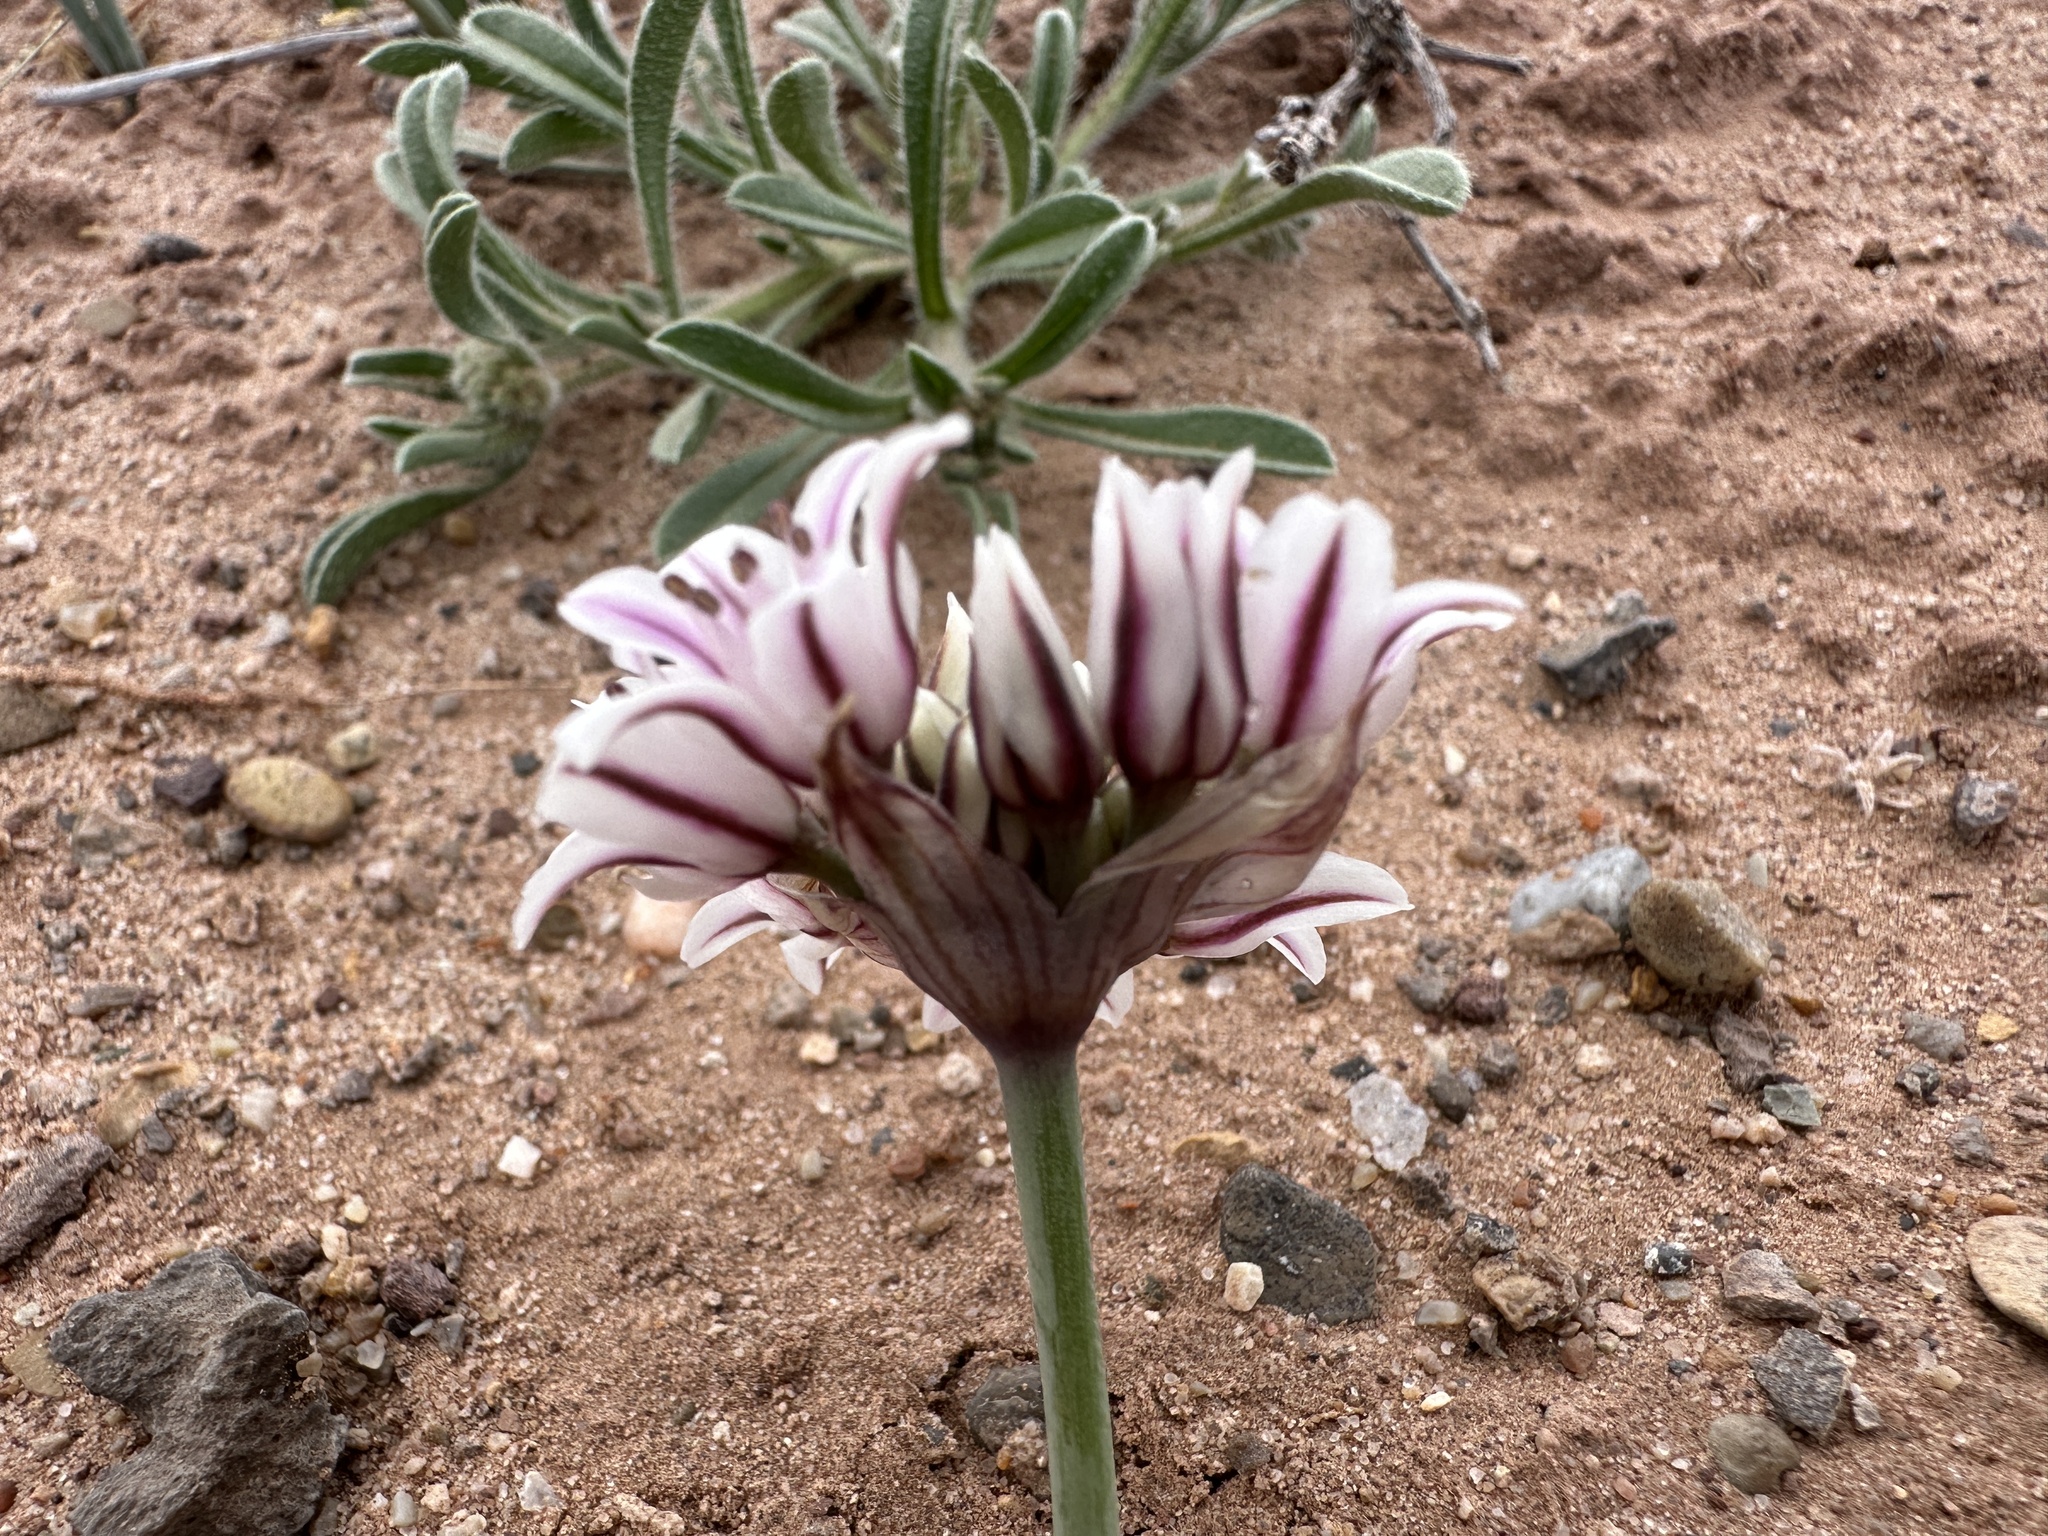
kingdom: Plantae
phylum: Tracheophyta
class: Liliopsida
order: Asparagales
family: Amaryllidaceae
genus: Allium
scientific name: Allium macropetalum
